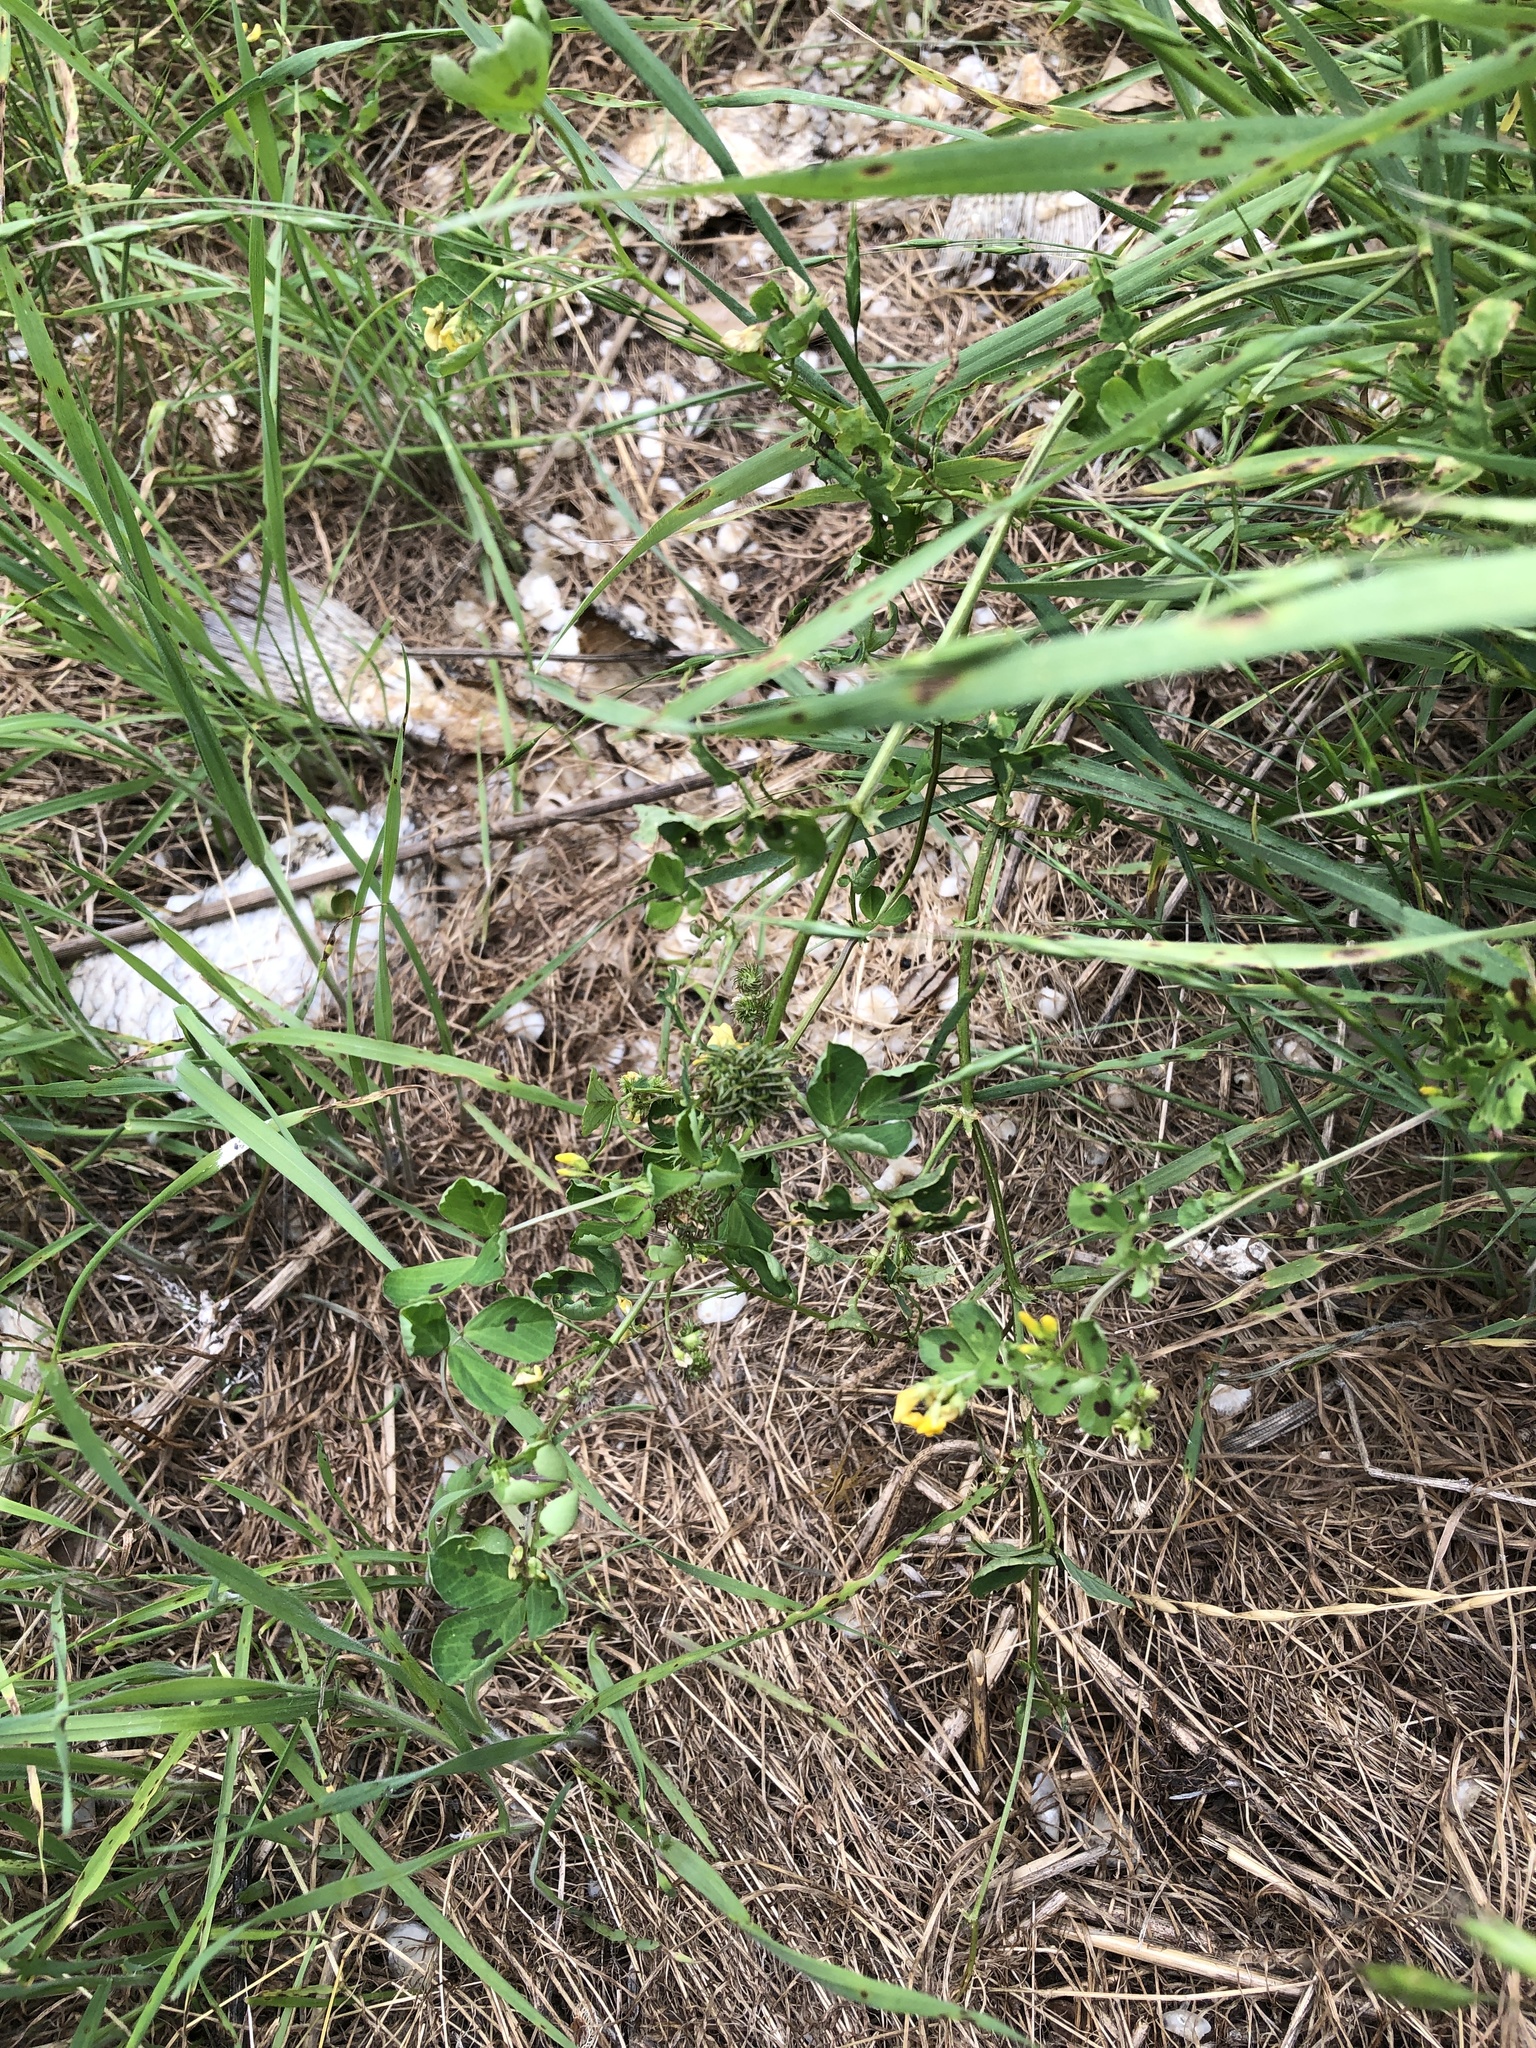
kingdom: Plantae
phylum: Tracheophyta
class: Magnoliopsida
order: Fabales
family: Fabaceae
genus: Medicago
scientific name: Medicago arabica
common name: Spotted medick
